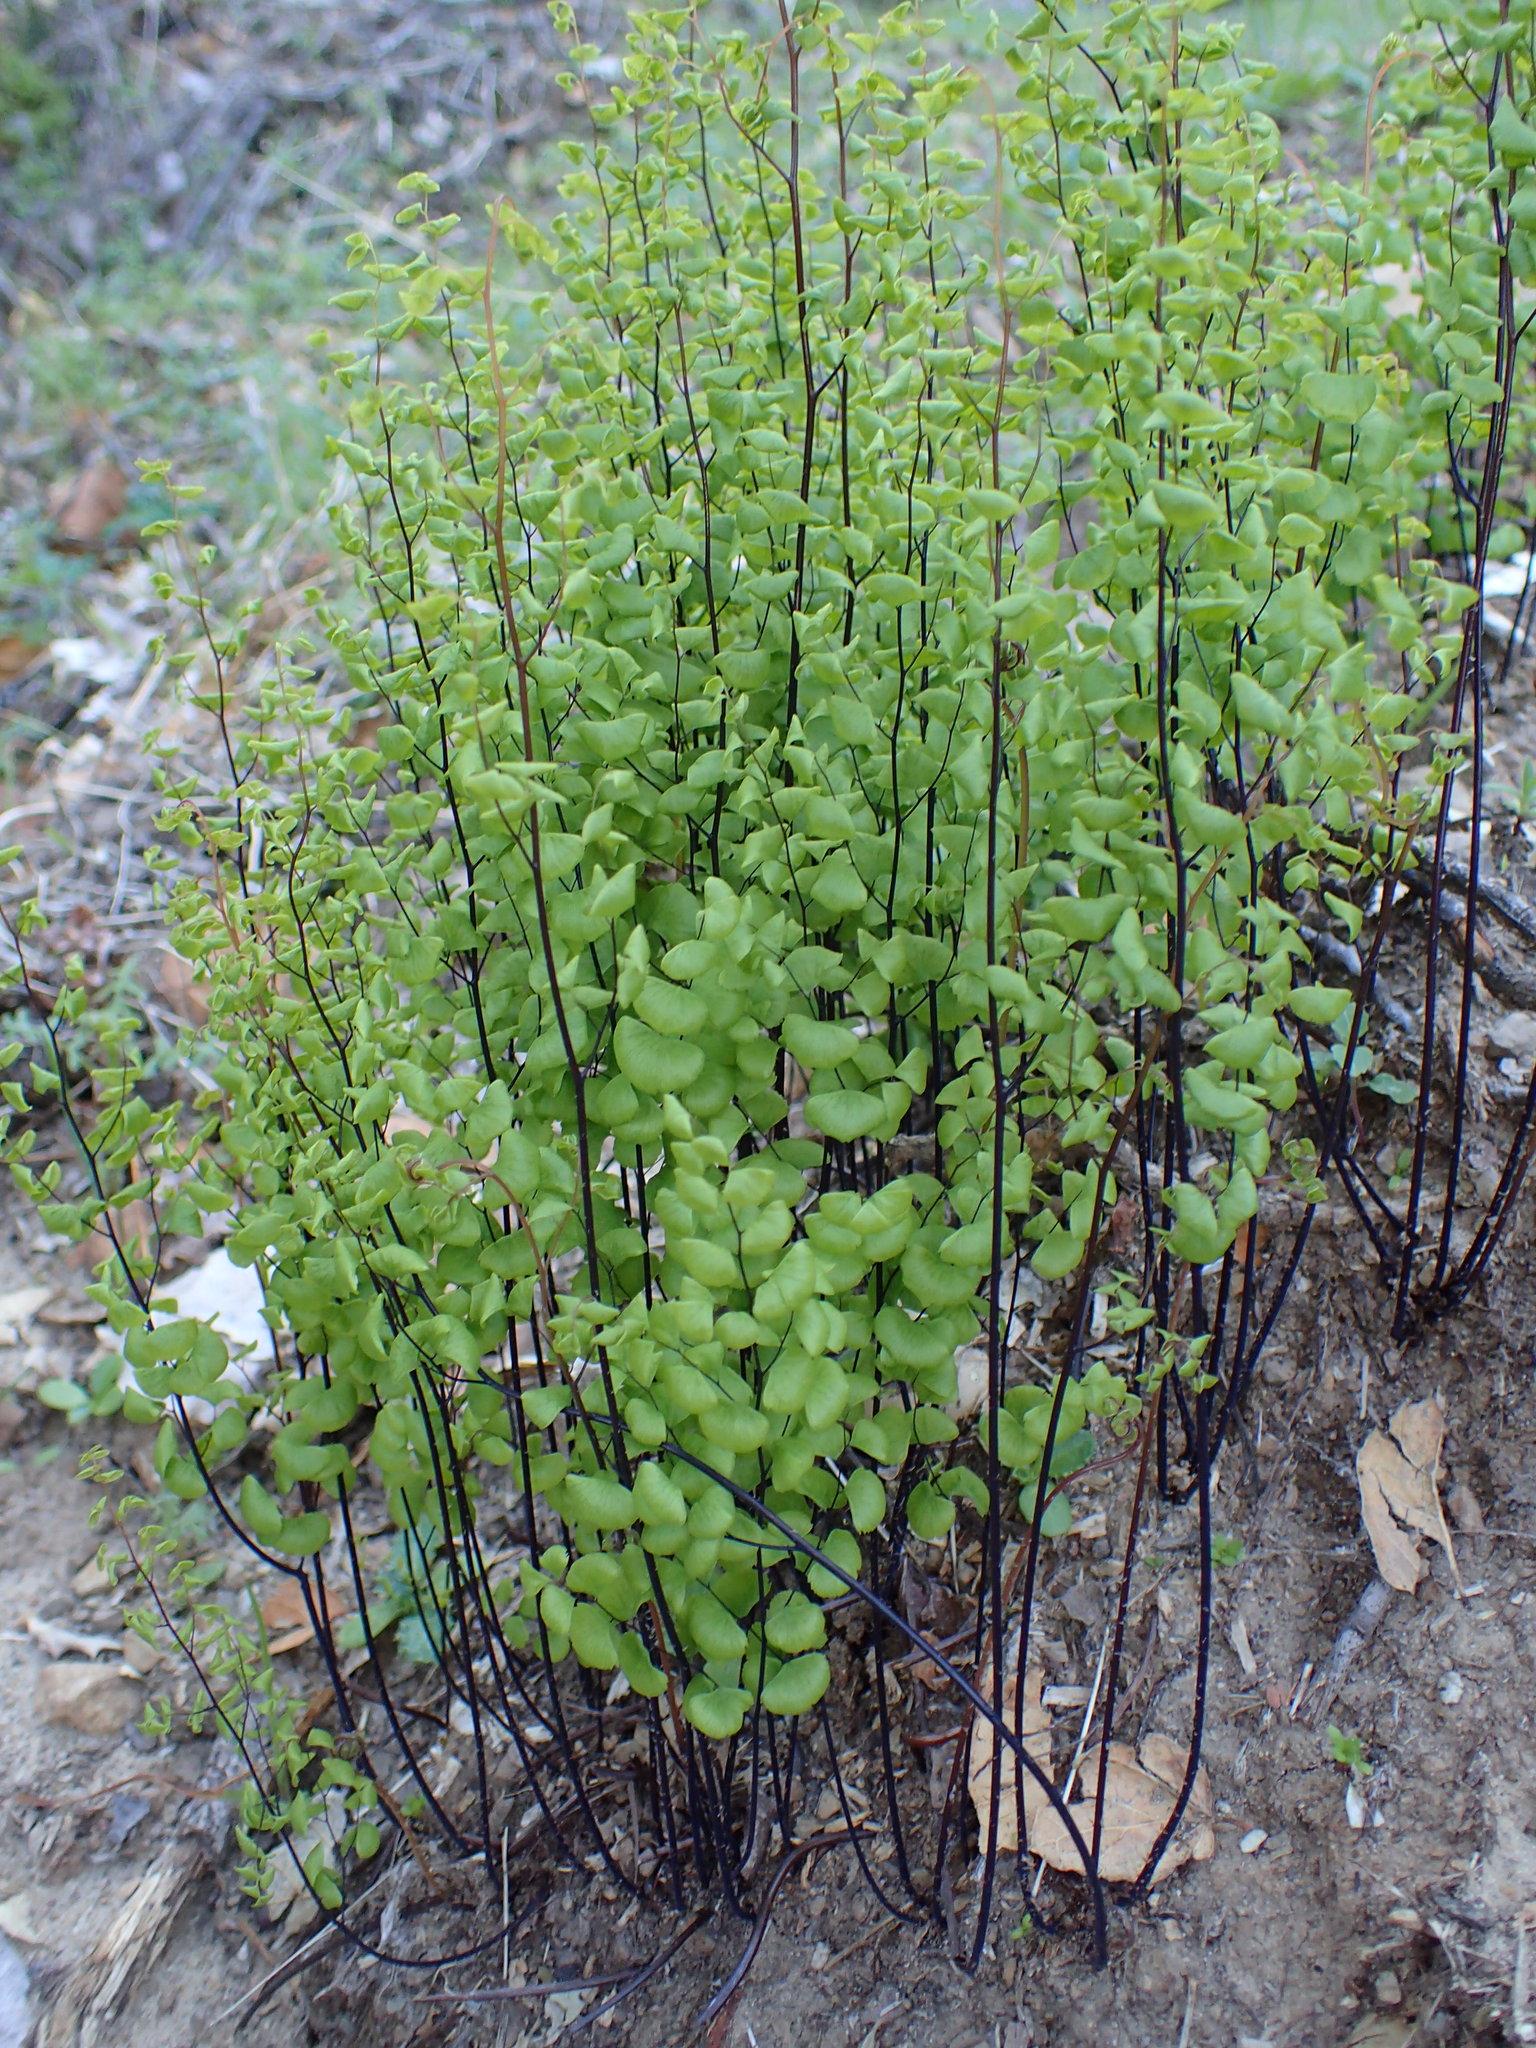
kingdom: Plantae
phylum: Tracheophyta
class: Polypodiopsida
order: Polypodiales
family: Pteridaceae
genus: Adiantum
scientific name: Adiantum jordanii
